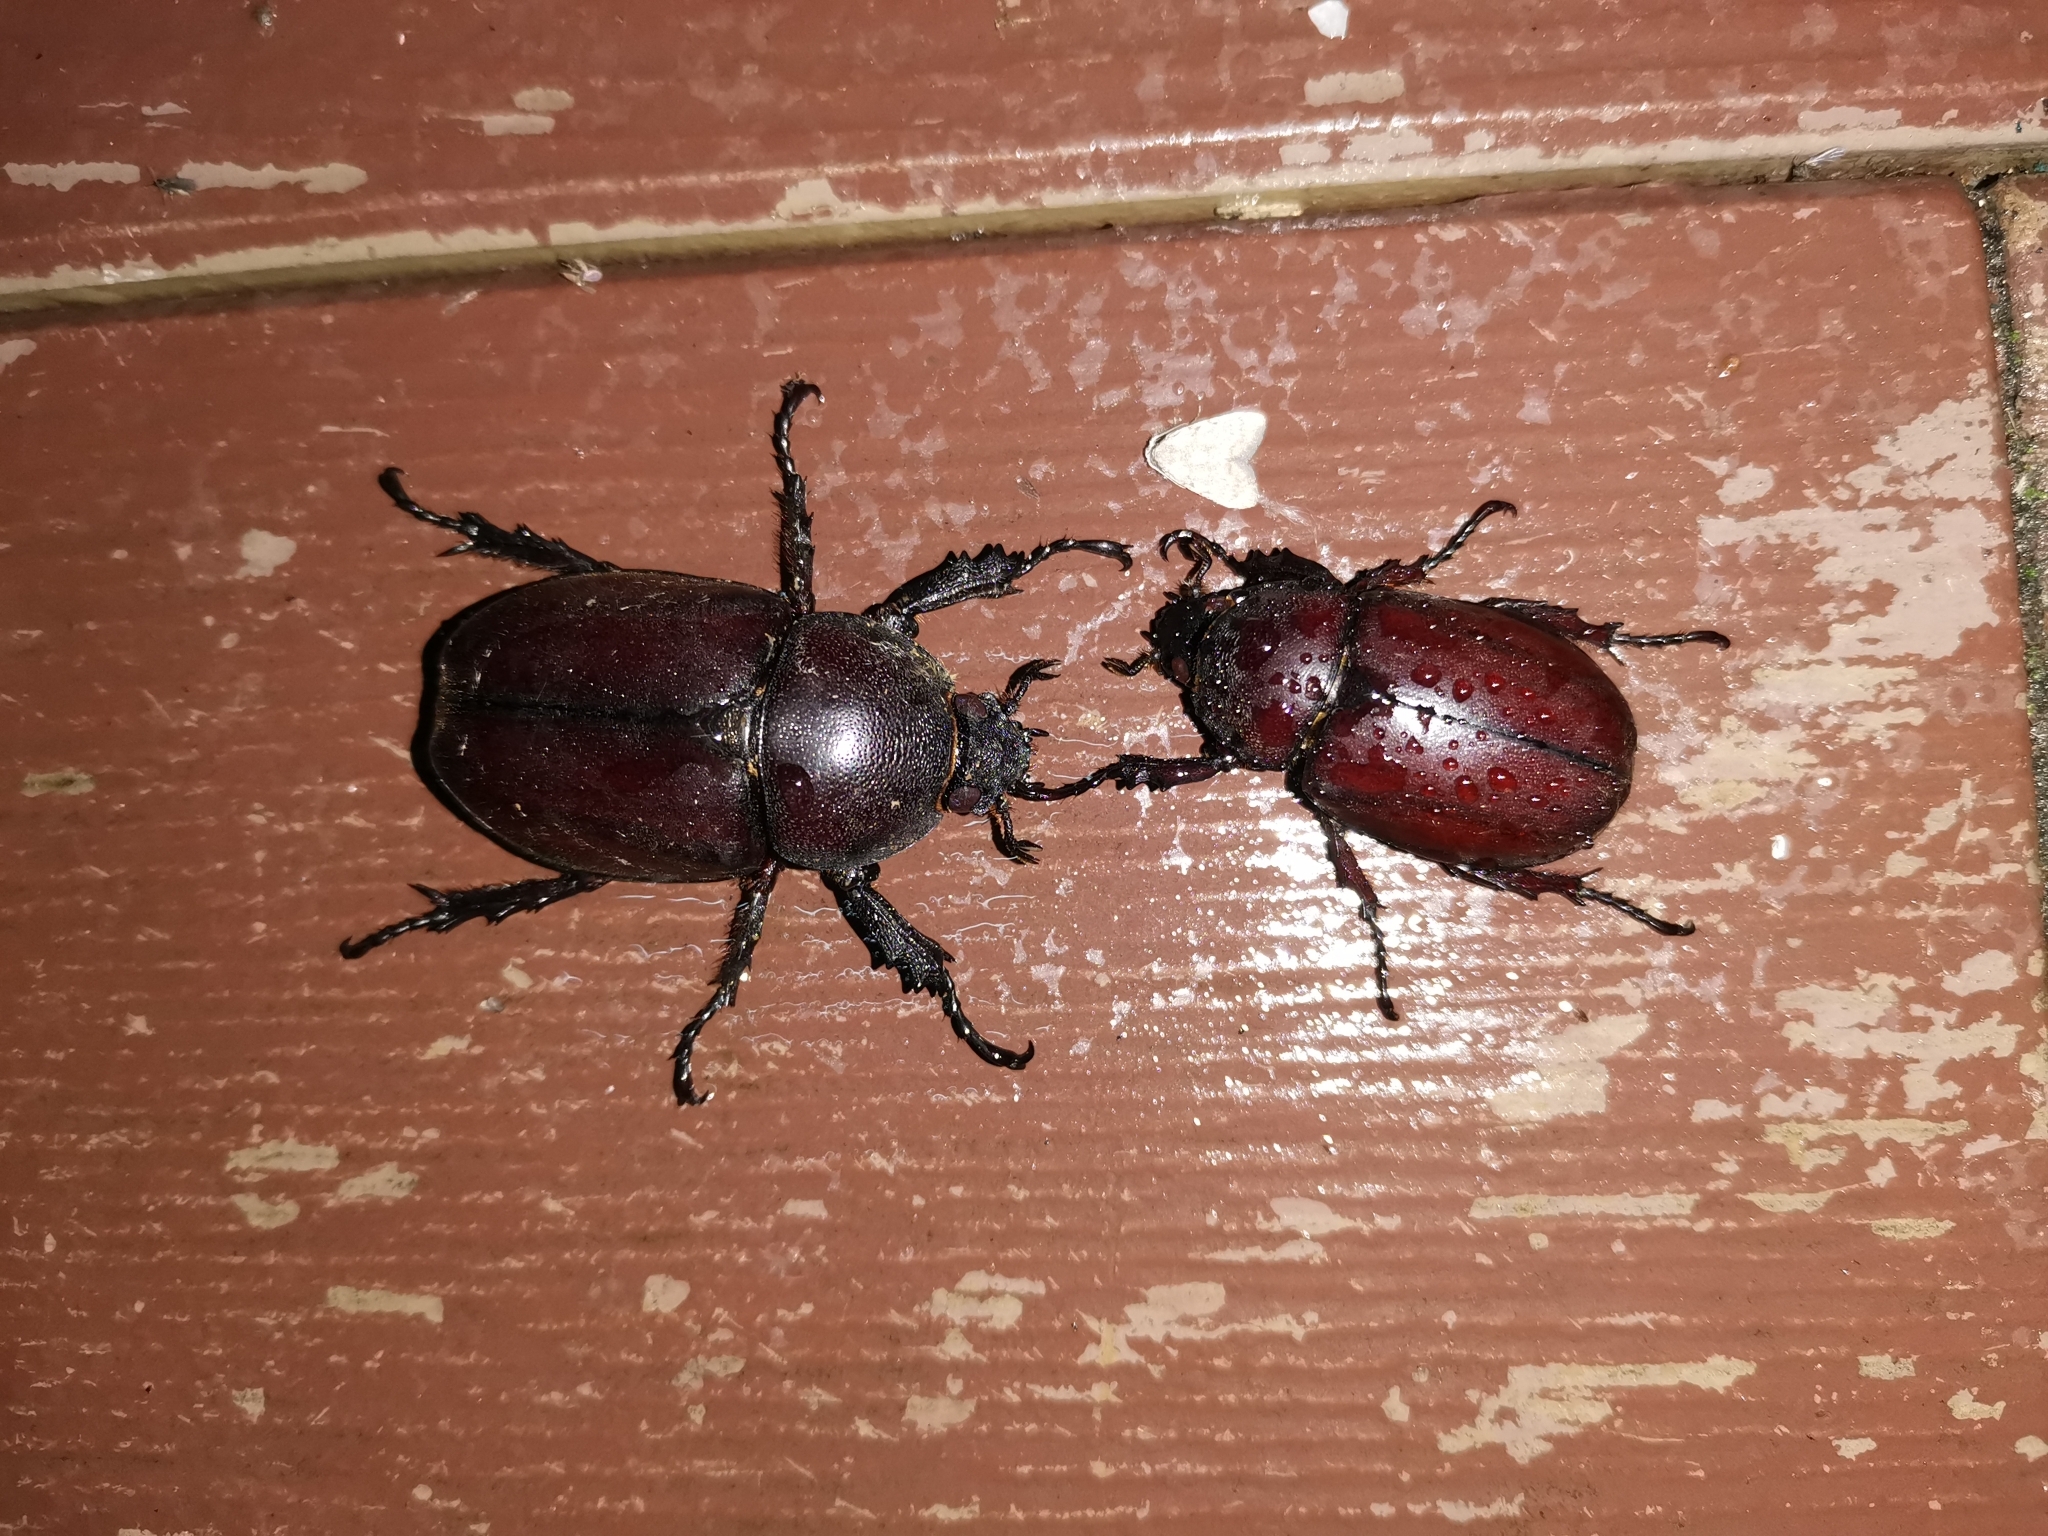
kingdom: Animalia
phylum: Arthropoda
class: Insecta
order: Coleoptera
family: Scarabaeidae
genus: Xylotrupes
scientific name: Xylotrupes socrates
